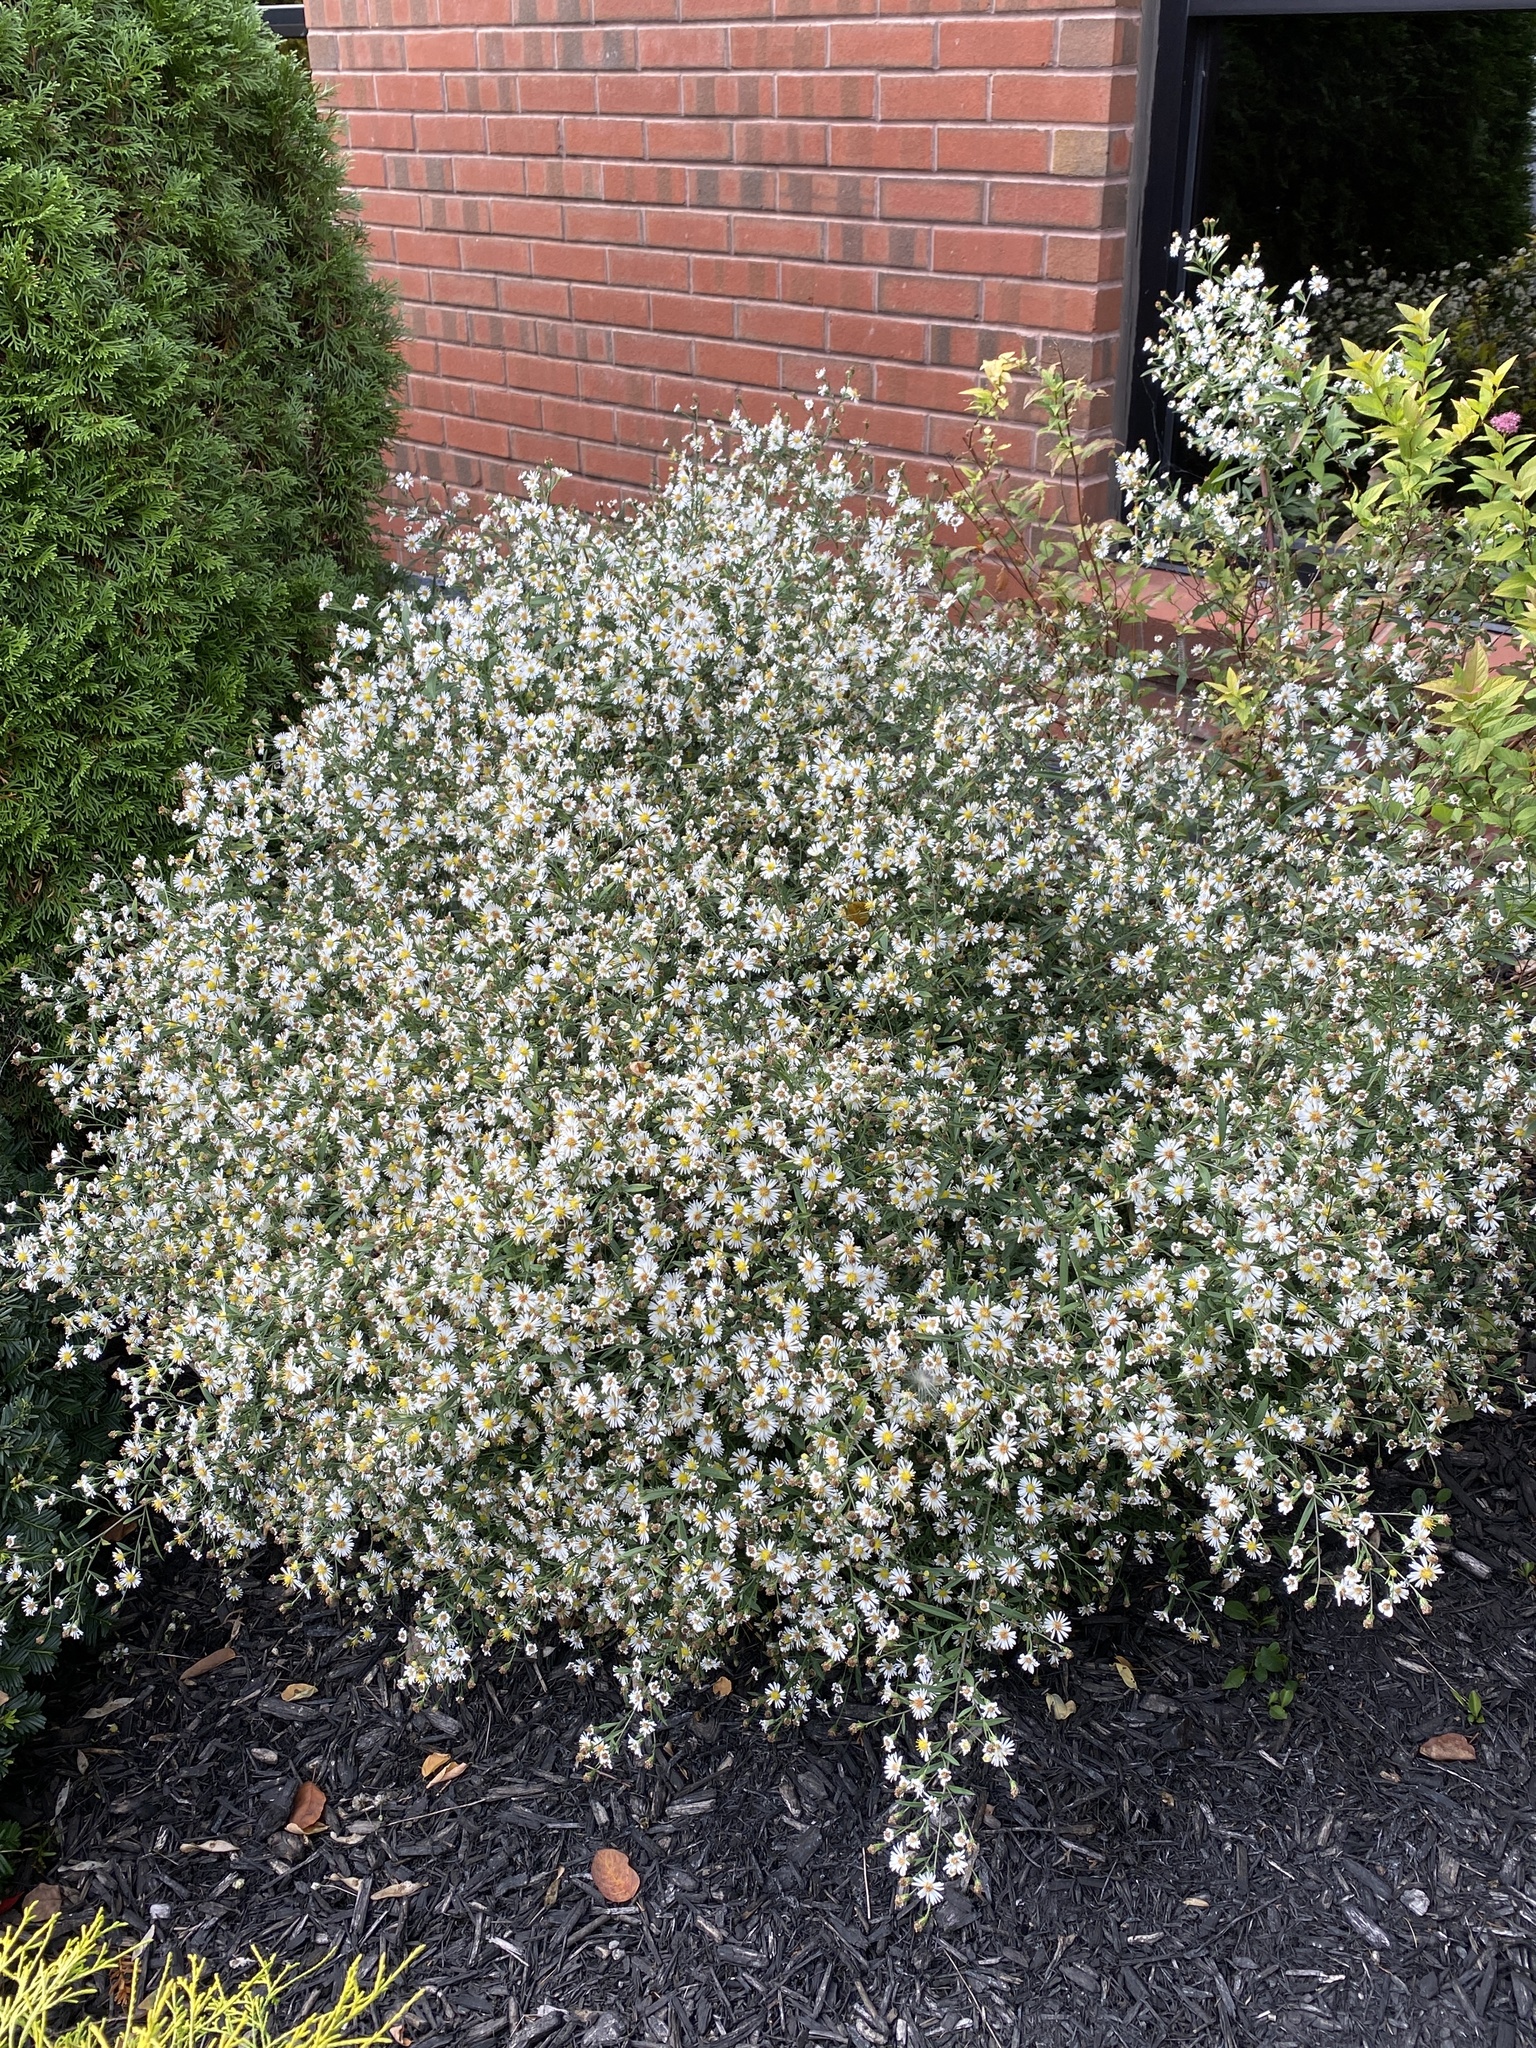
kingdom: Plantae
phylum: Tracheophyta
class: Magnoliopsida
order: Asterales
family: Asteraceae
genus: Symphyotrichum
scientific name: Symphyotrichum lanceolatum
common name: Panicled aster
